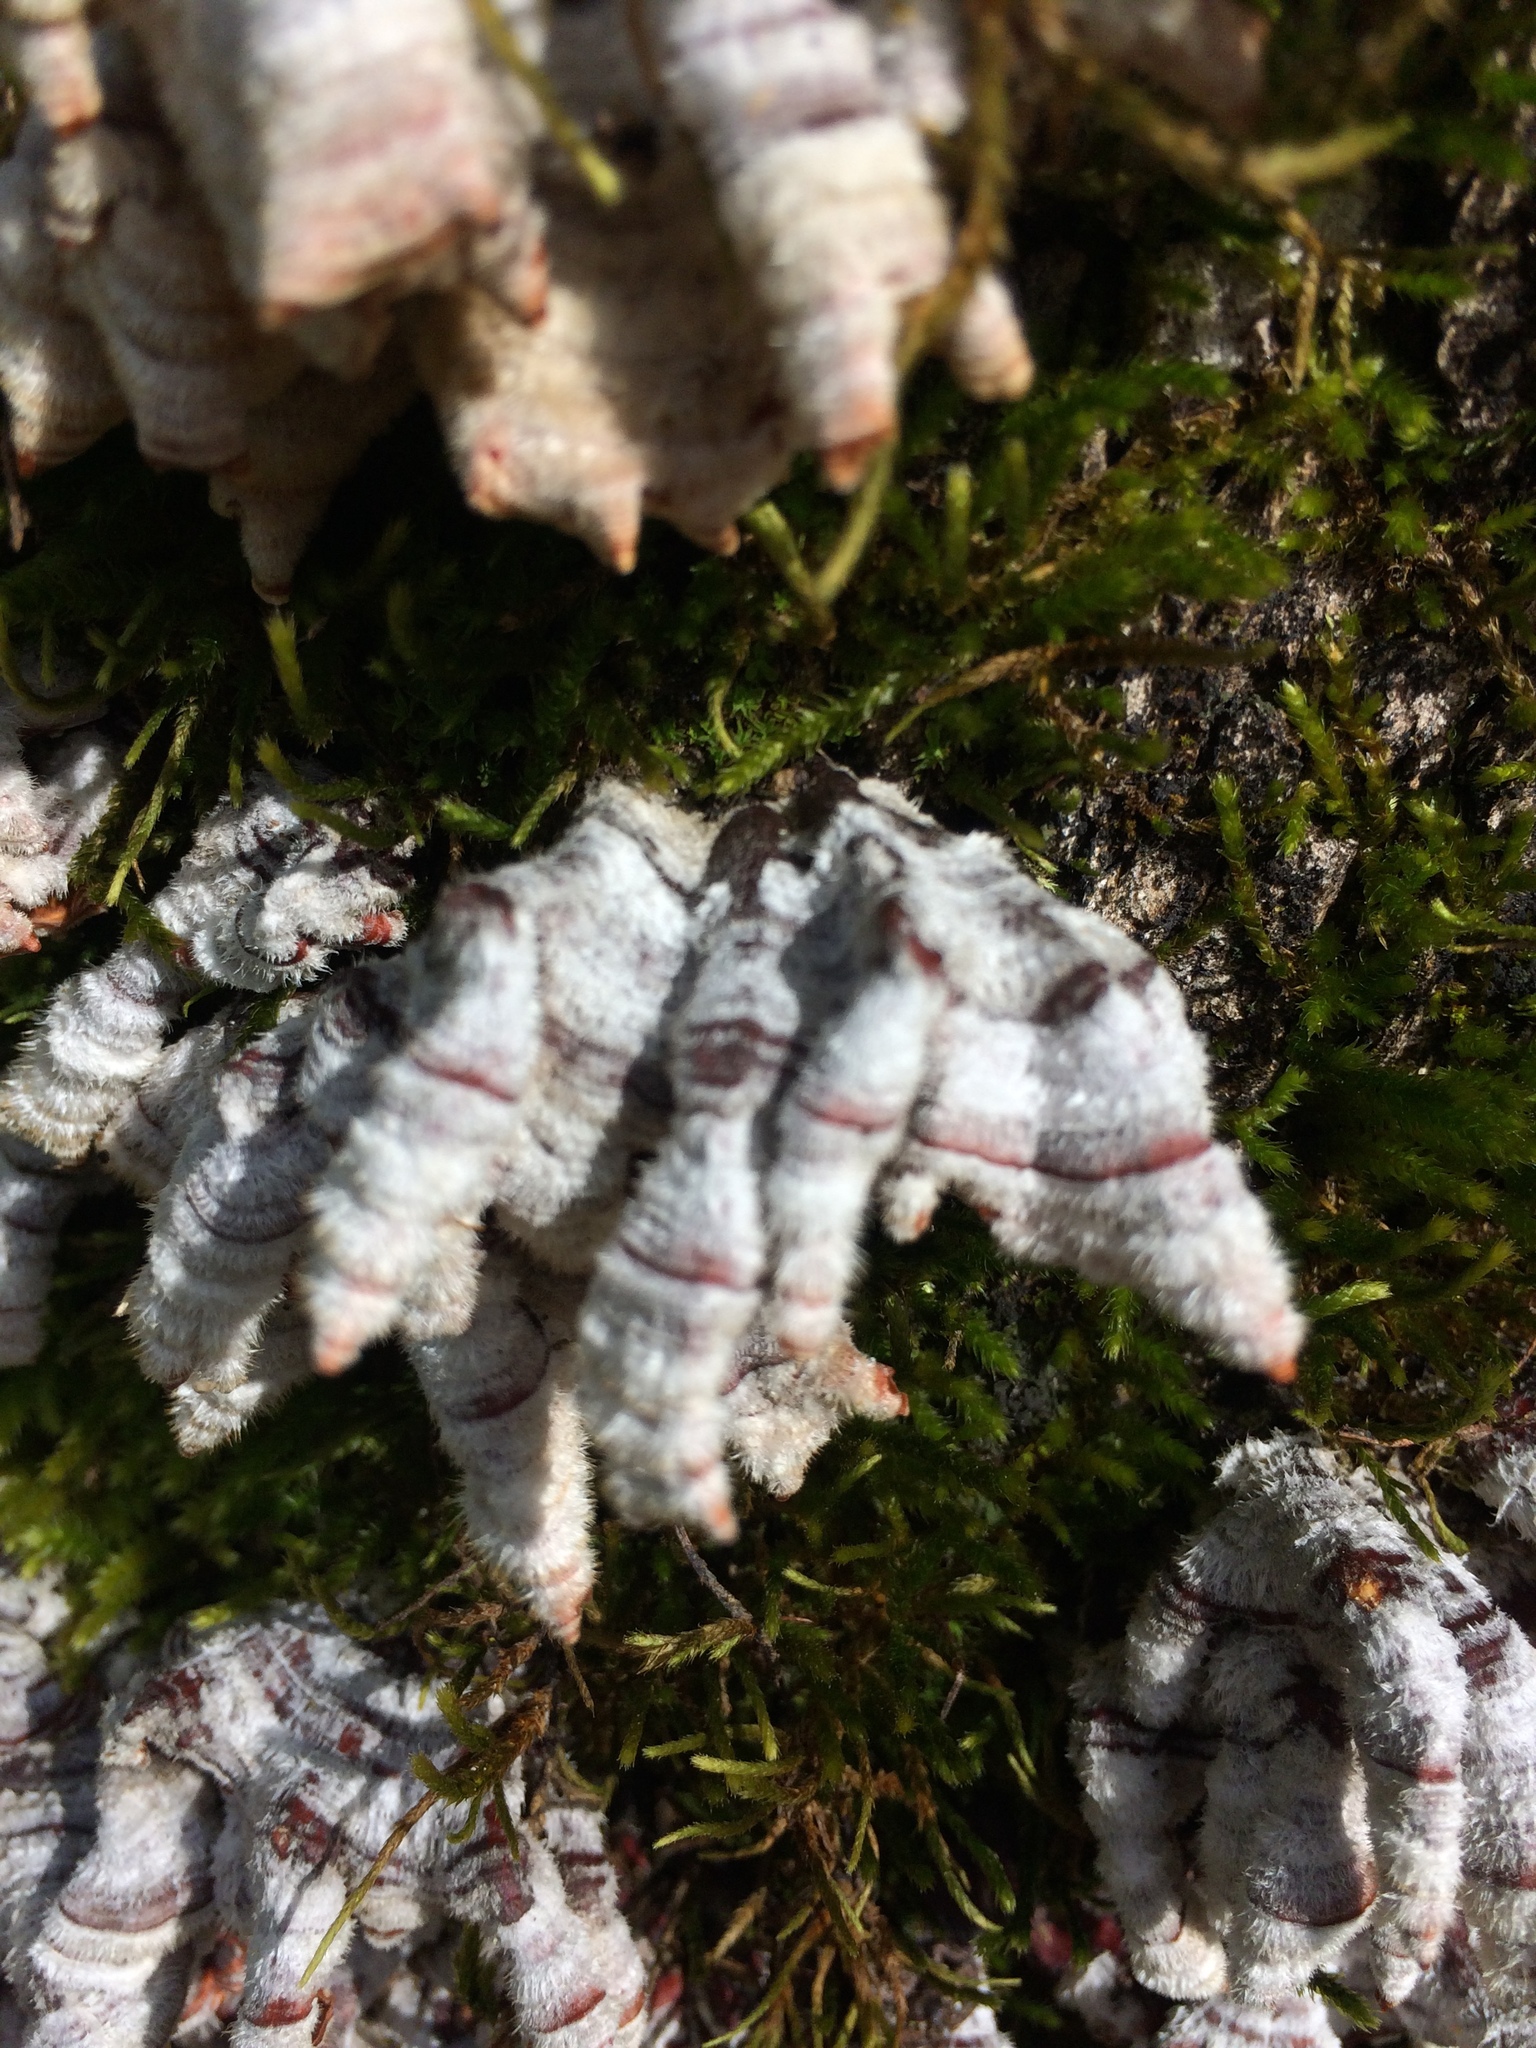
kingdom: Fungi
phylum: Basidiomycota
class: Agaricomycetes
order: Russulales
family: Stereaceae
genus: Stereum
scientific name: Stereum hirsutum
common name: Hairy curtain crust
